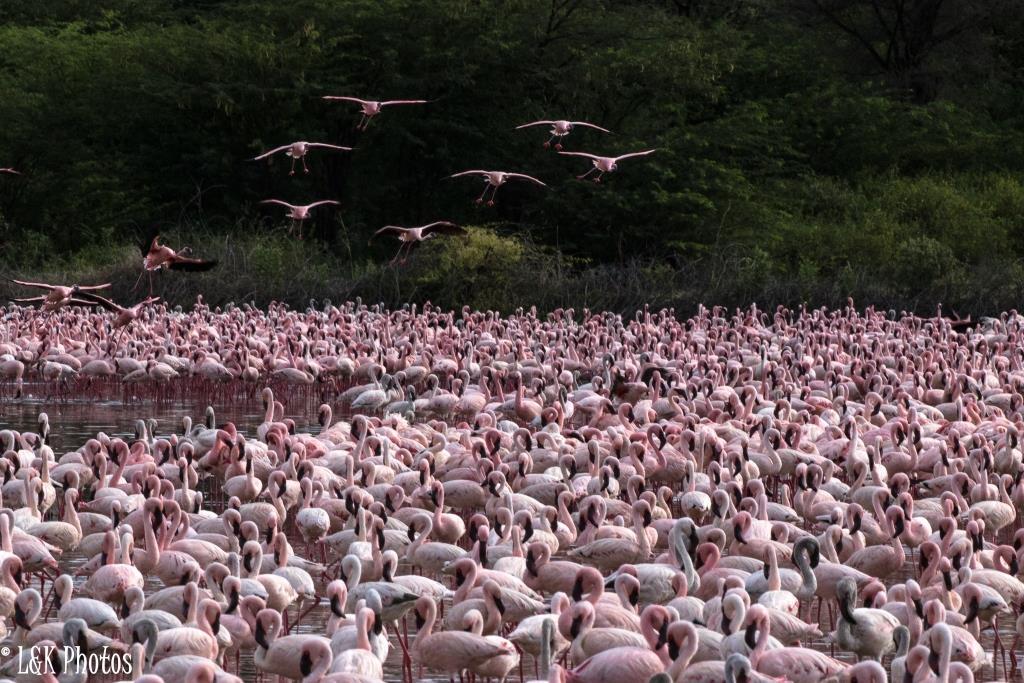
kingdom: Animalia
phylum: Chordata
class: Aves
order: Phoenicopteriformes
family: Phoenicopteridae
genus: Phoeniconaias
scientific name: Phoeniconaias minor
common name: Lesser flamingo
